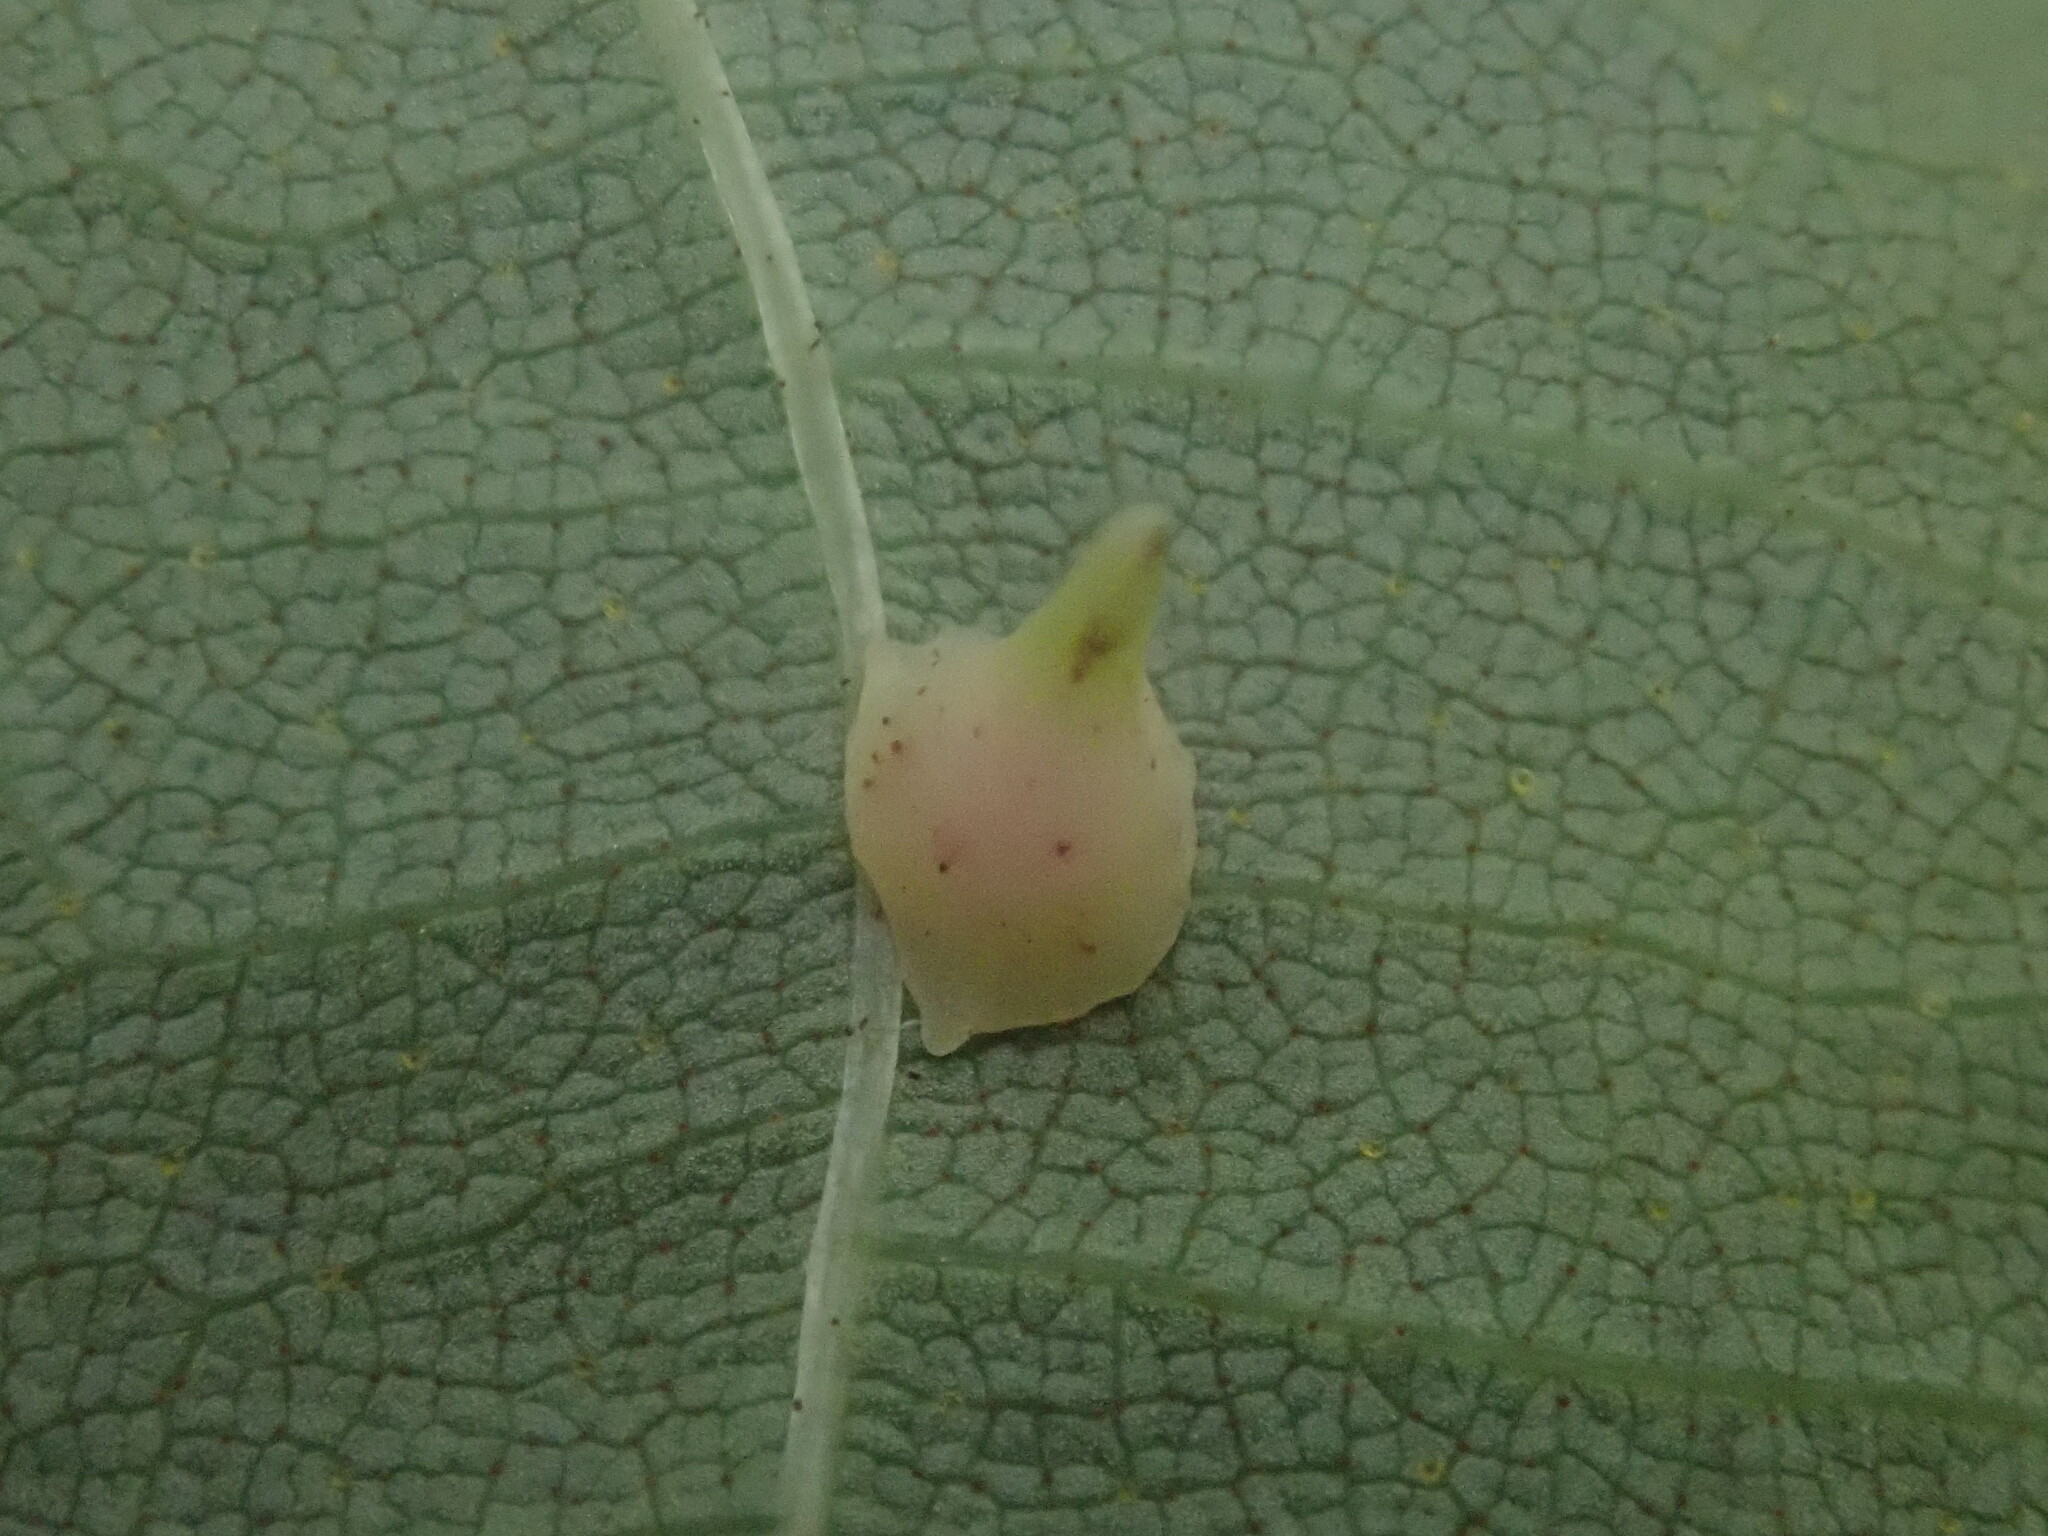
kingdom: Animalia
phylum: Arthropoda
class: Insecta
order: Diptera
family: Cecidomyiidae
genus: Caryomyia
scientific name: Caryomyia sanguinolenta
